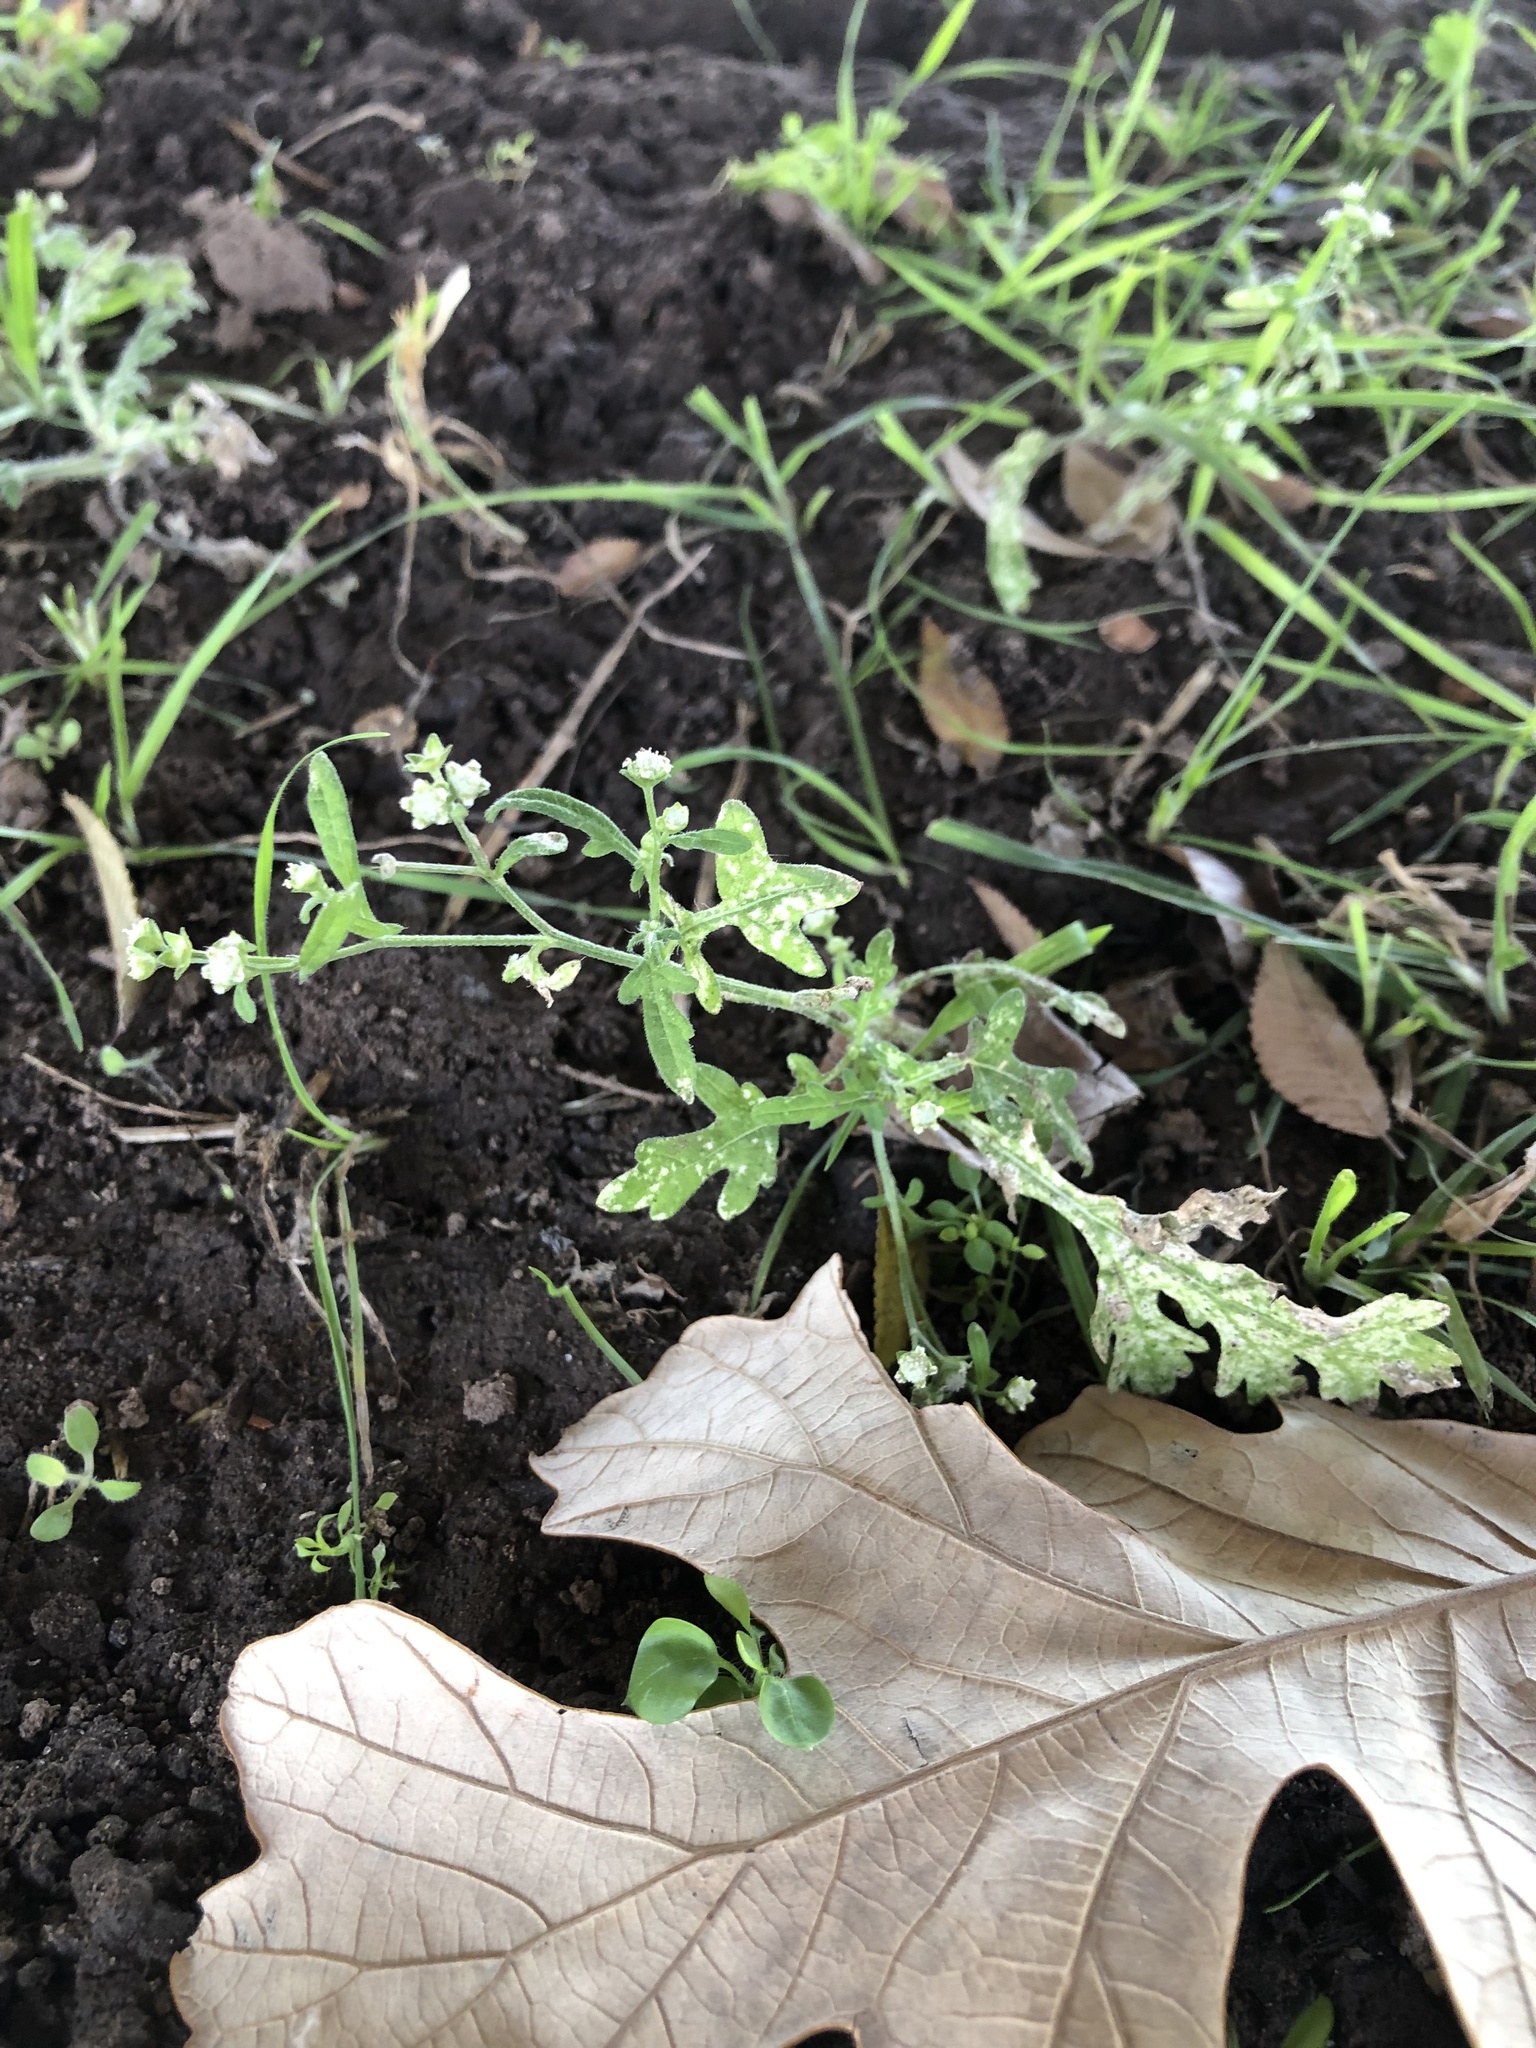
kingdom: Plantae
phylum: Tracheophyta
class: Magnoliopsida
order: Asterales
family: Asteraceae
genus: Parthenium
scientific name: Parthenium hysterophorus
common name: Santa maria feverfew
